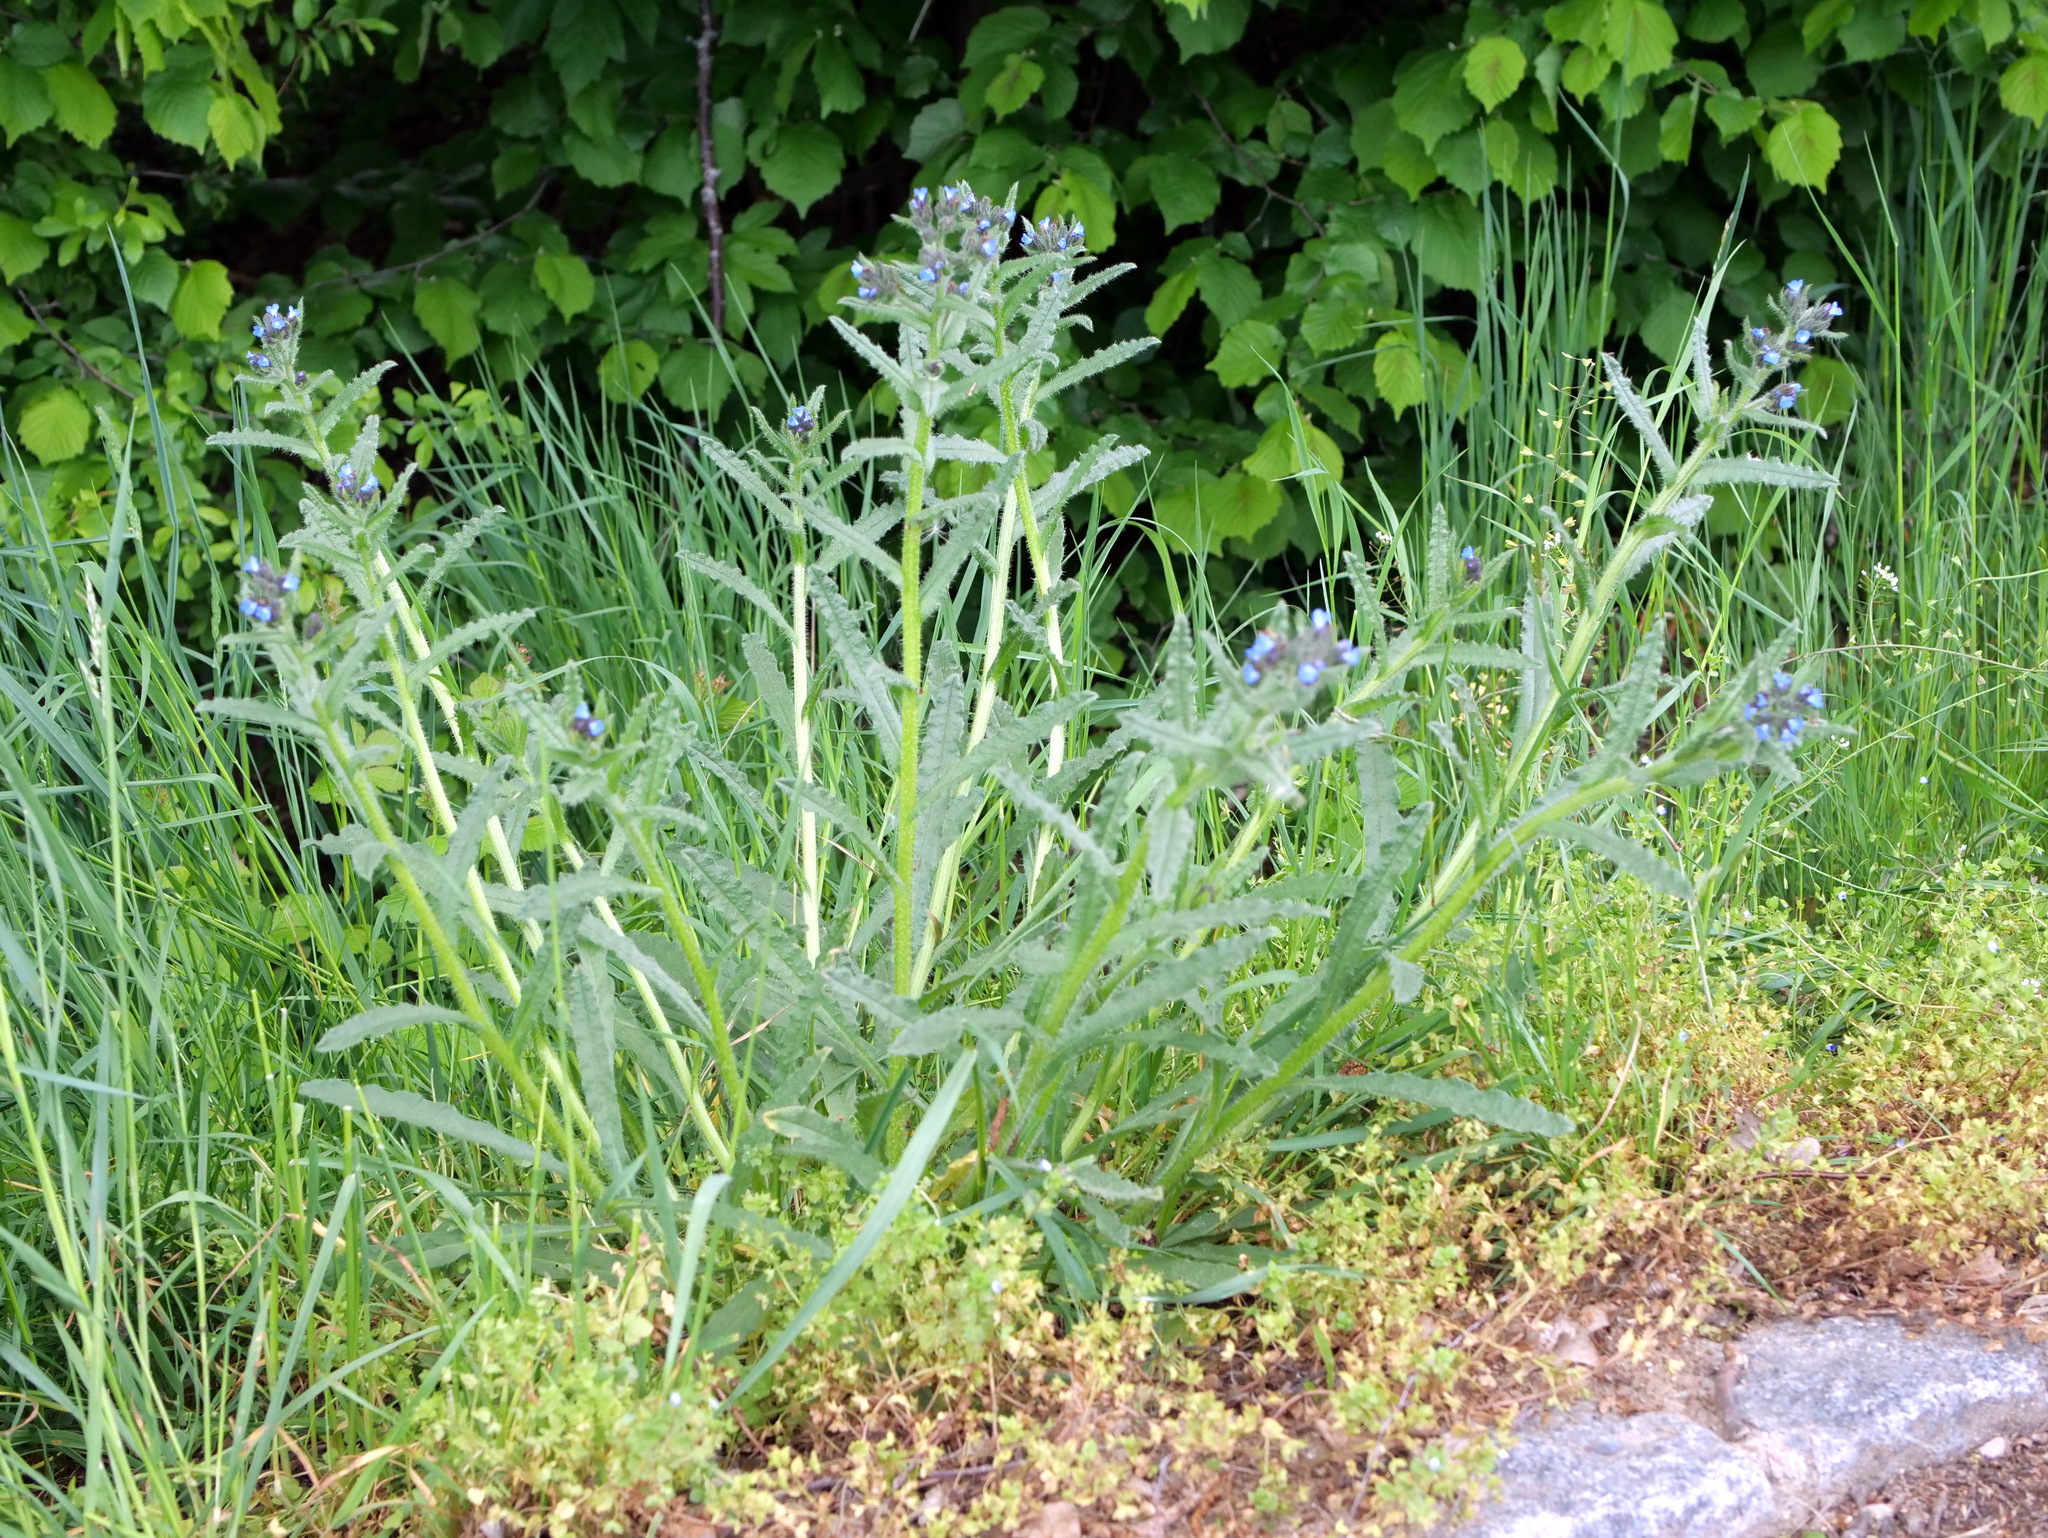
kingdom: Plantae
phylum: Tracheophyta
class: Magnoliopsida
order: Boraginales
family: Boraginaceae
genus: Lycopsis
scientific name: Lycopsis arvensis
